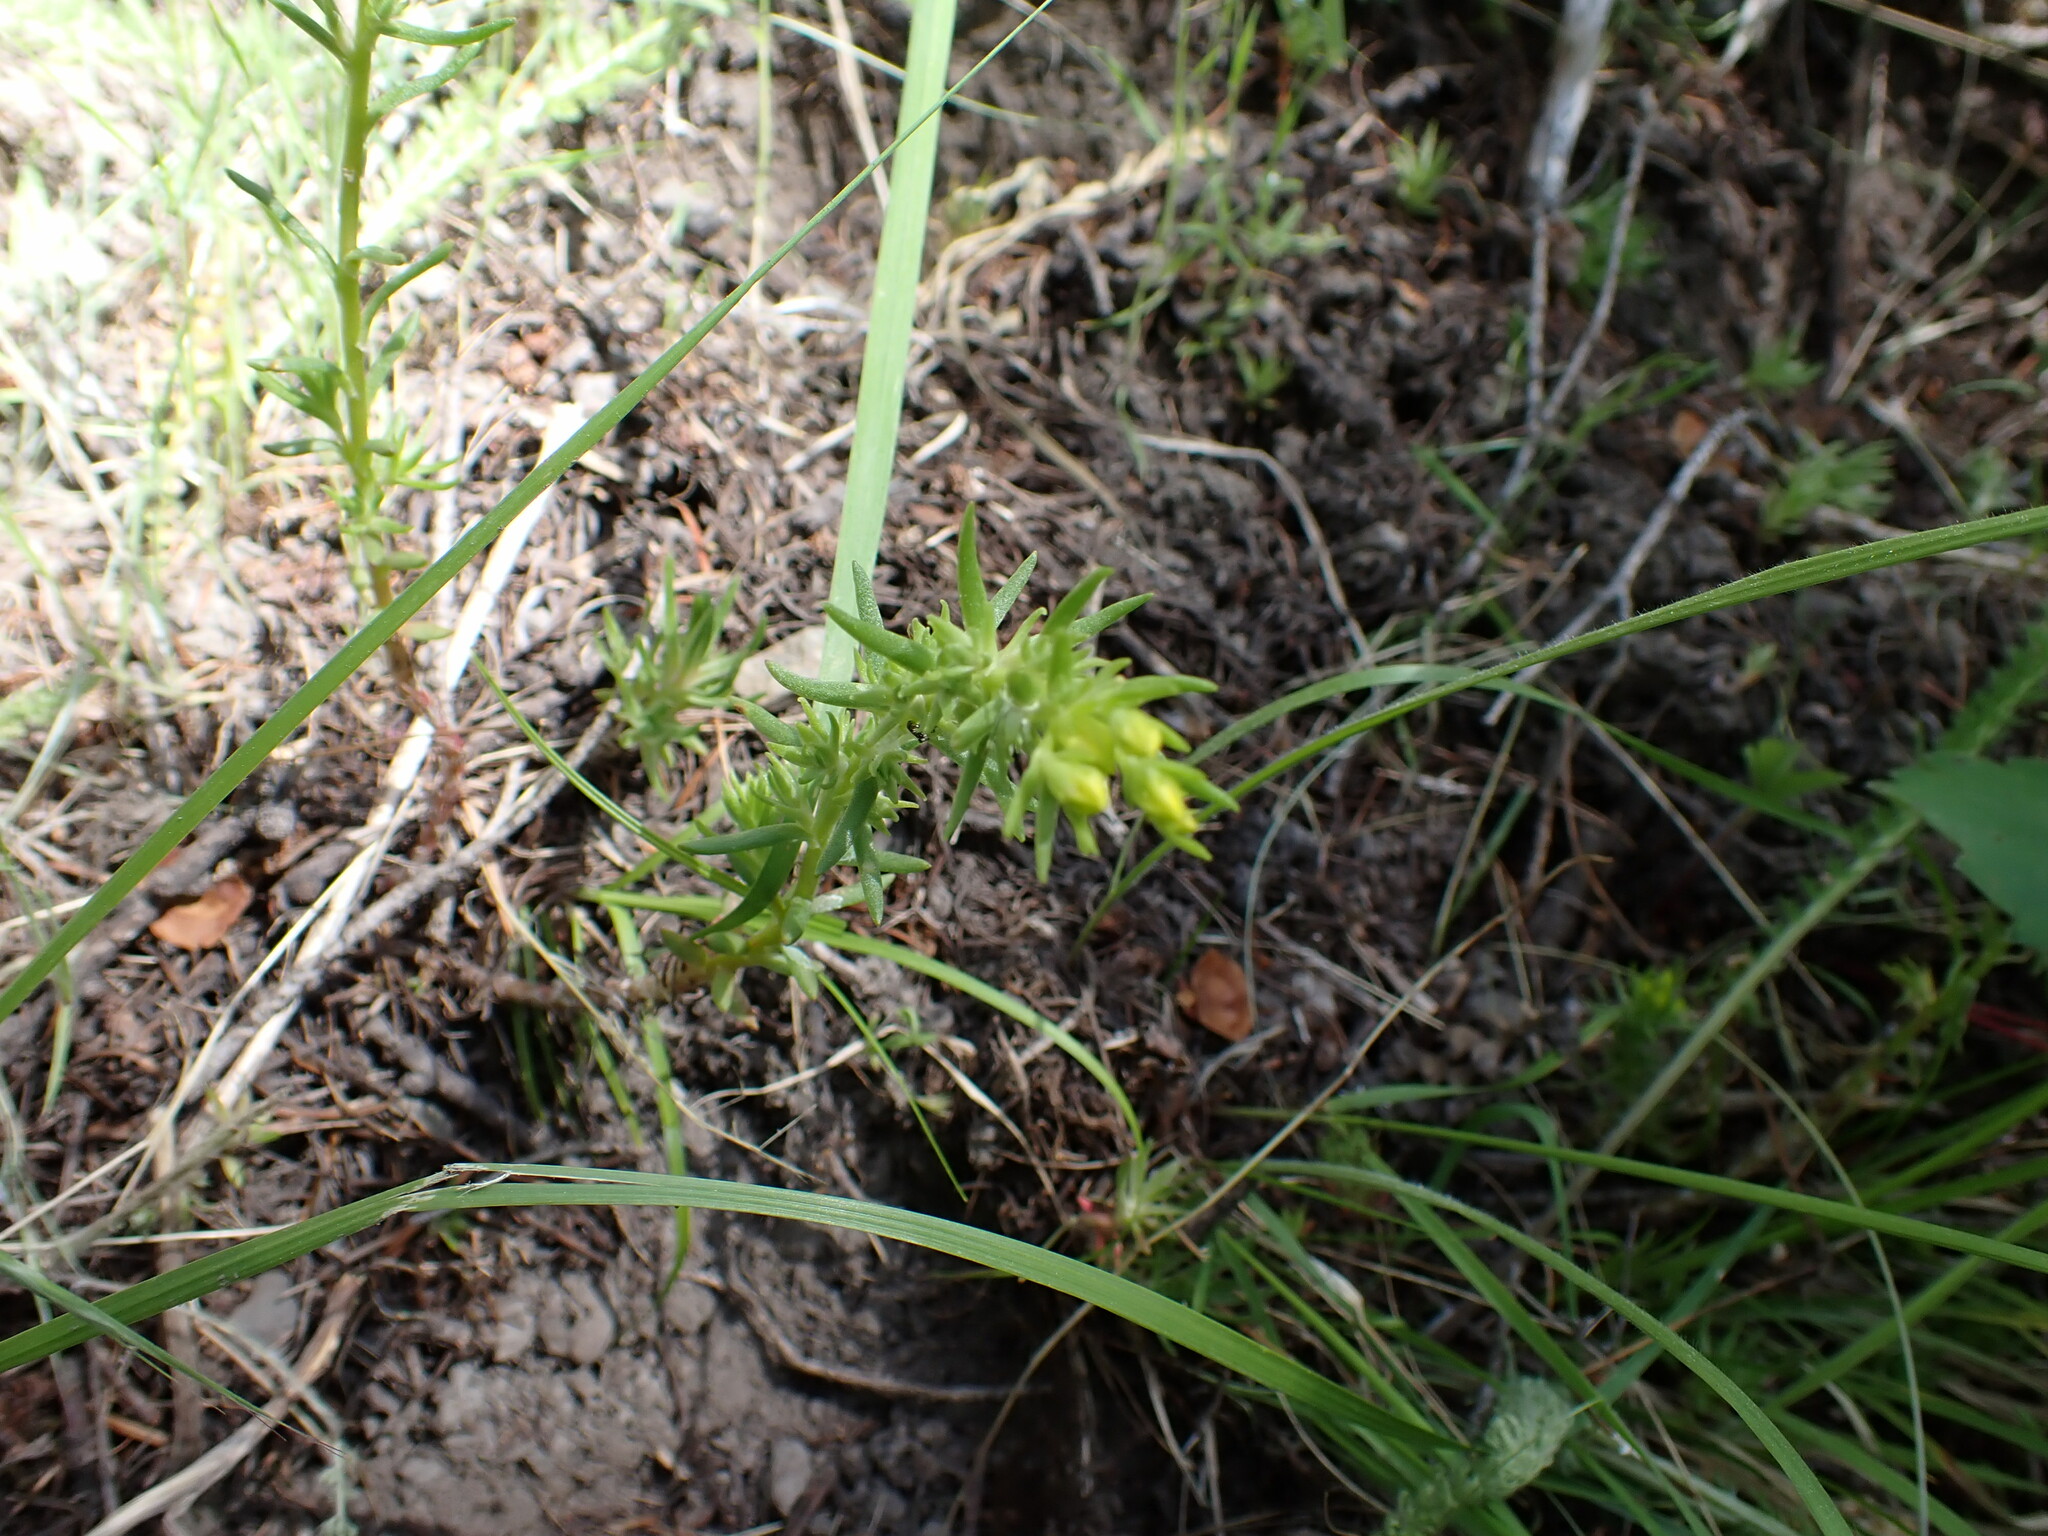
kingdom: Plantae
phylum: Tracheophyta
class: Magnoliopsida
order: Saxifragales
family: Crassulaceae
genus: Sedum
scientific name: Sedum stenopetalum
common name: Narrow-petaled stonecrop
